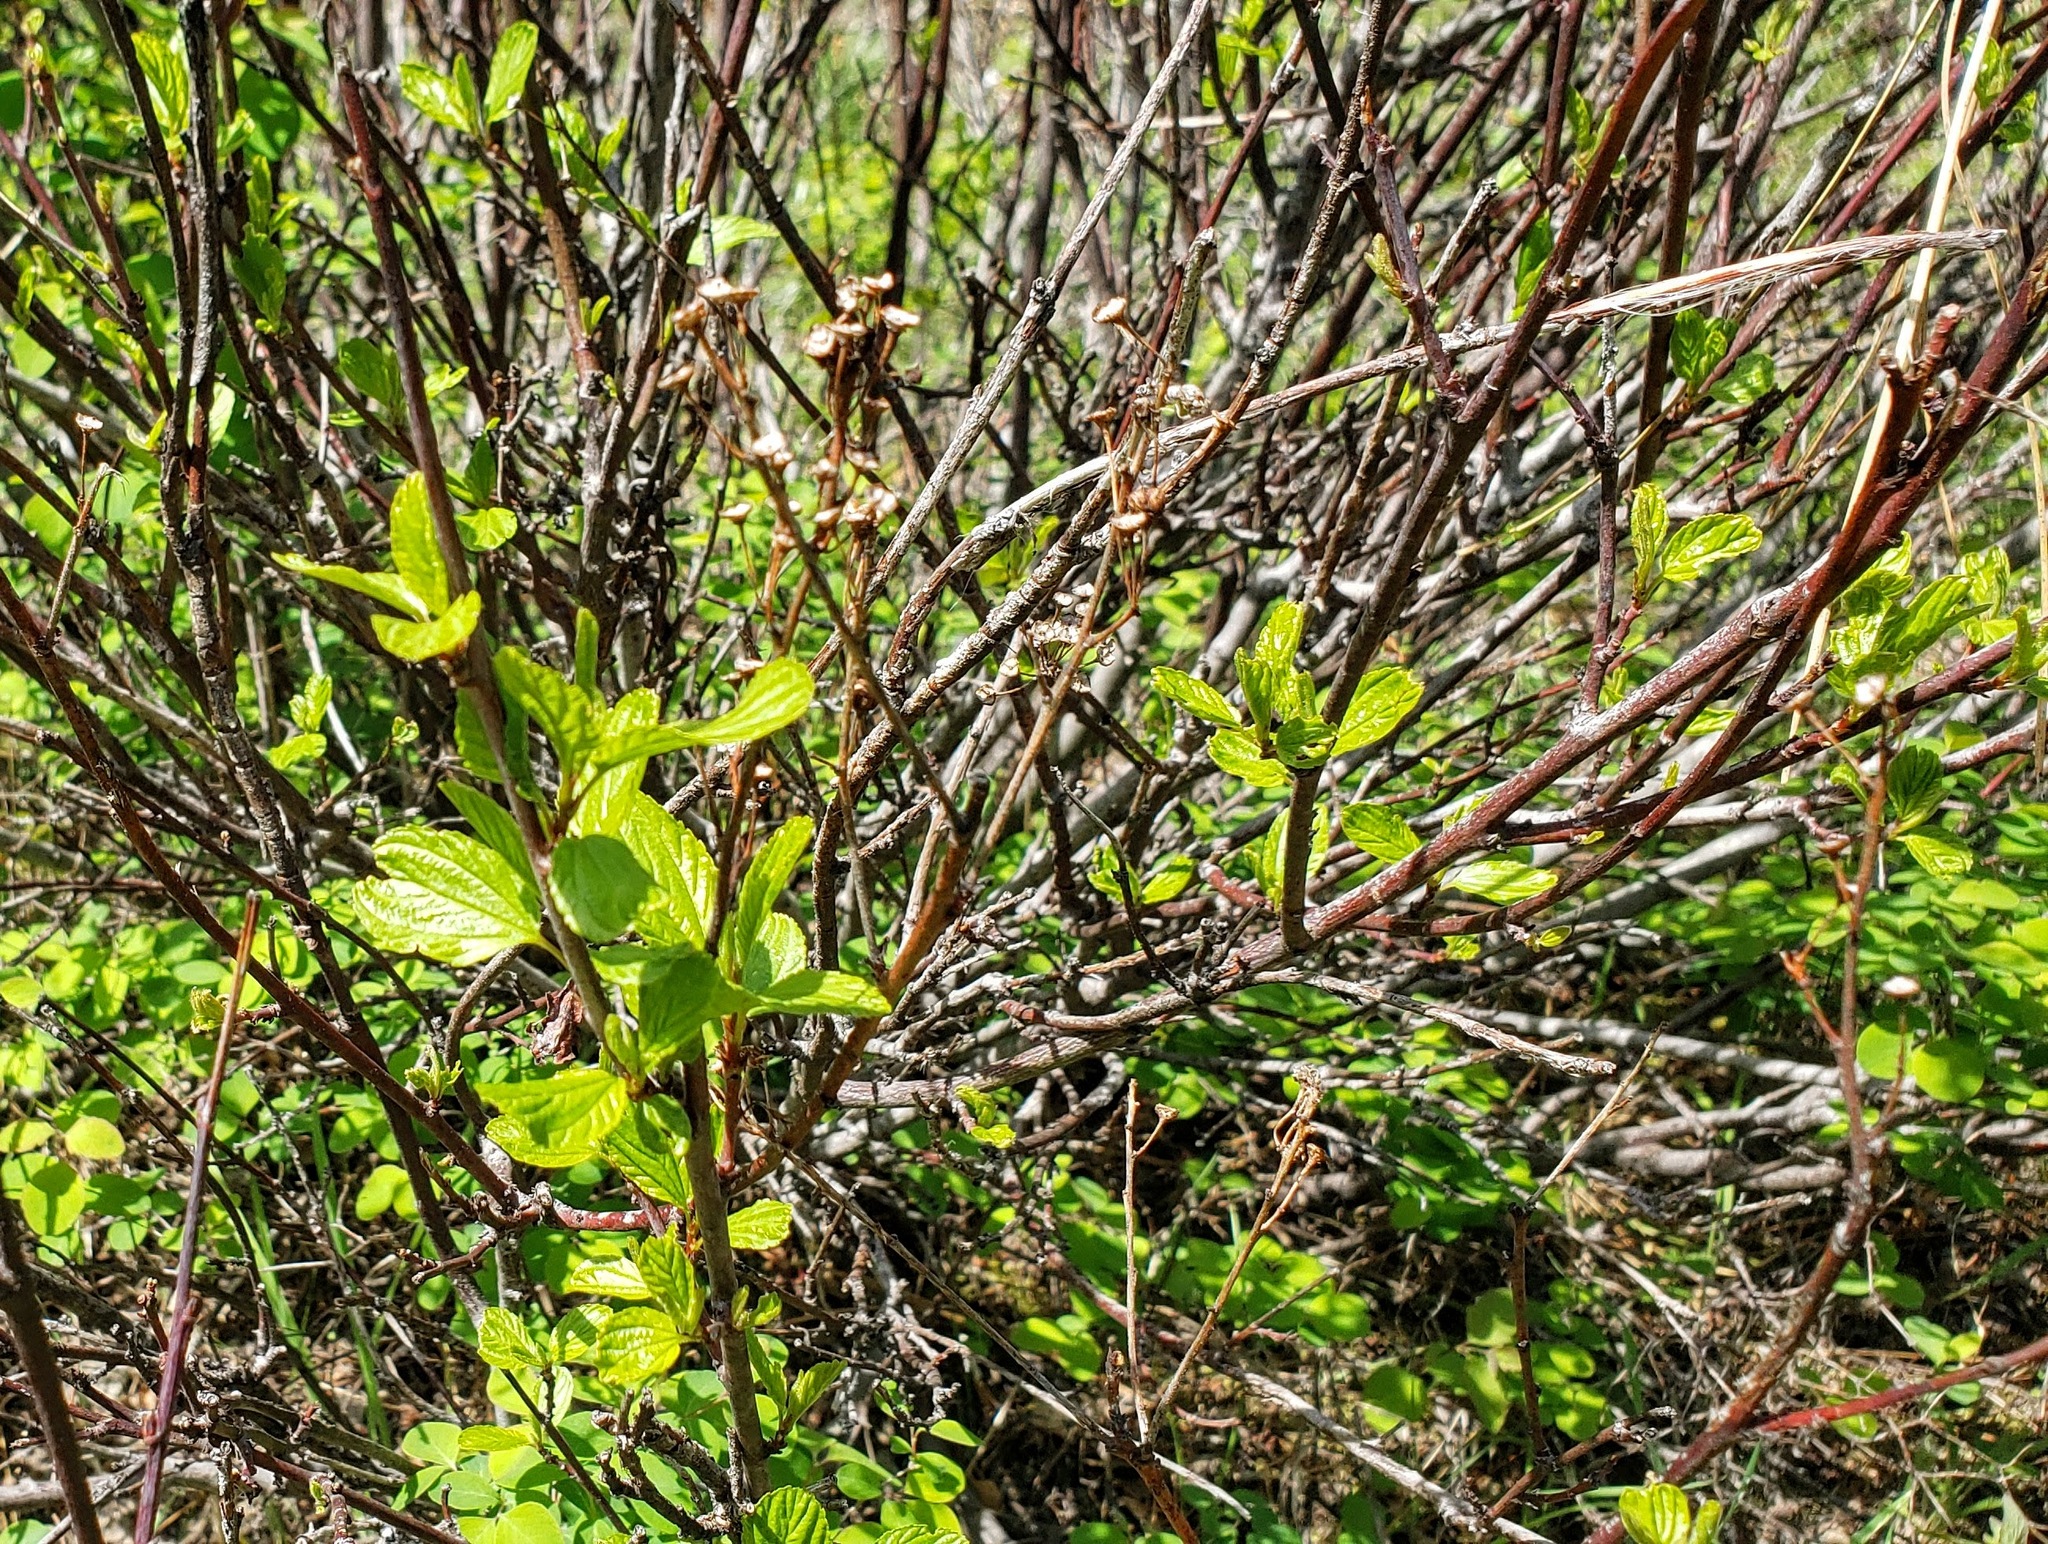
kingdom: Plantae
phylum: Tracheophyta
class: Magnoliopsida
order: Rosales
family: Rhamnaceae
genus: Ceanothus
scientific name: Ceanothus sanguineus
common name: Teatree
